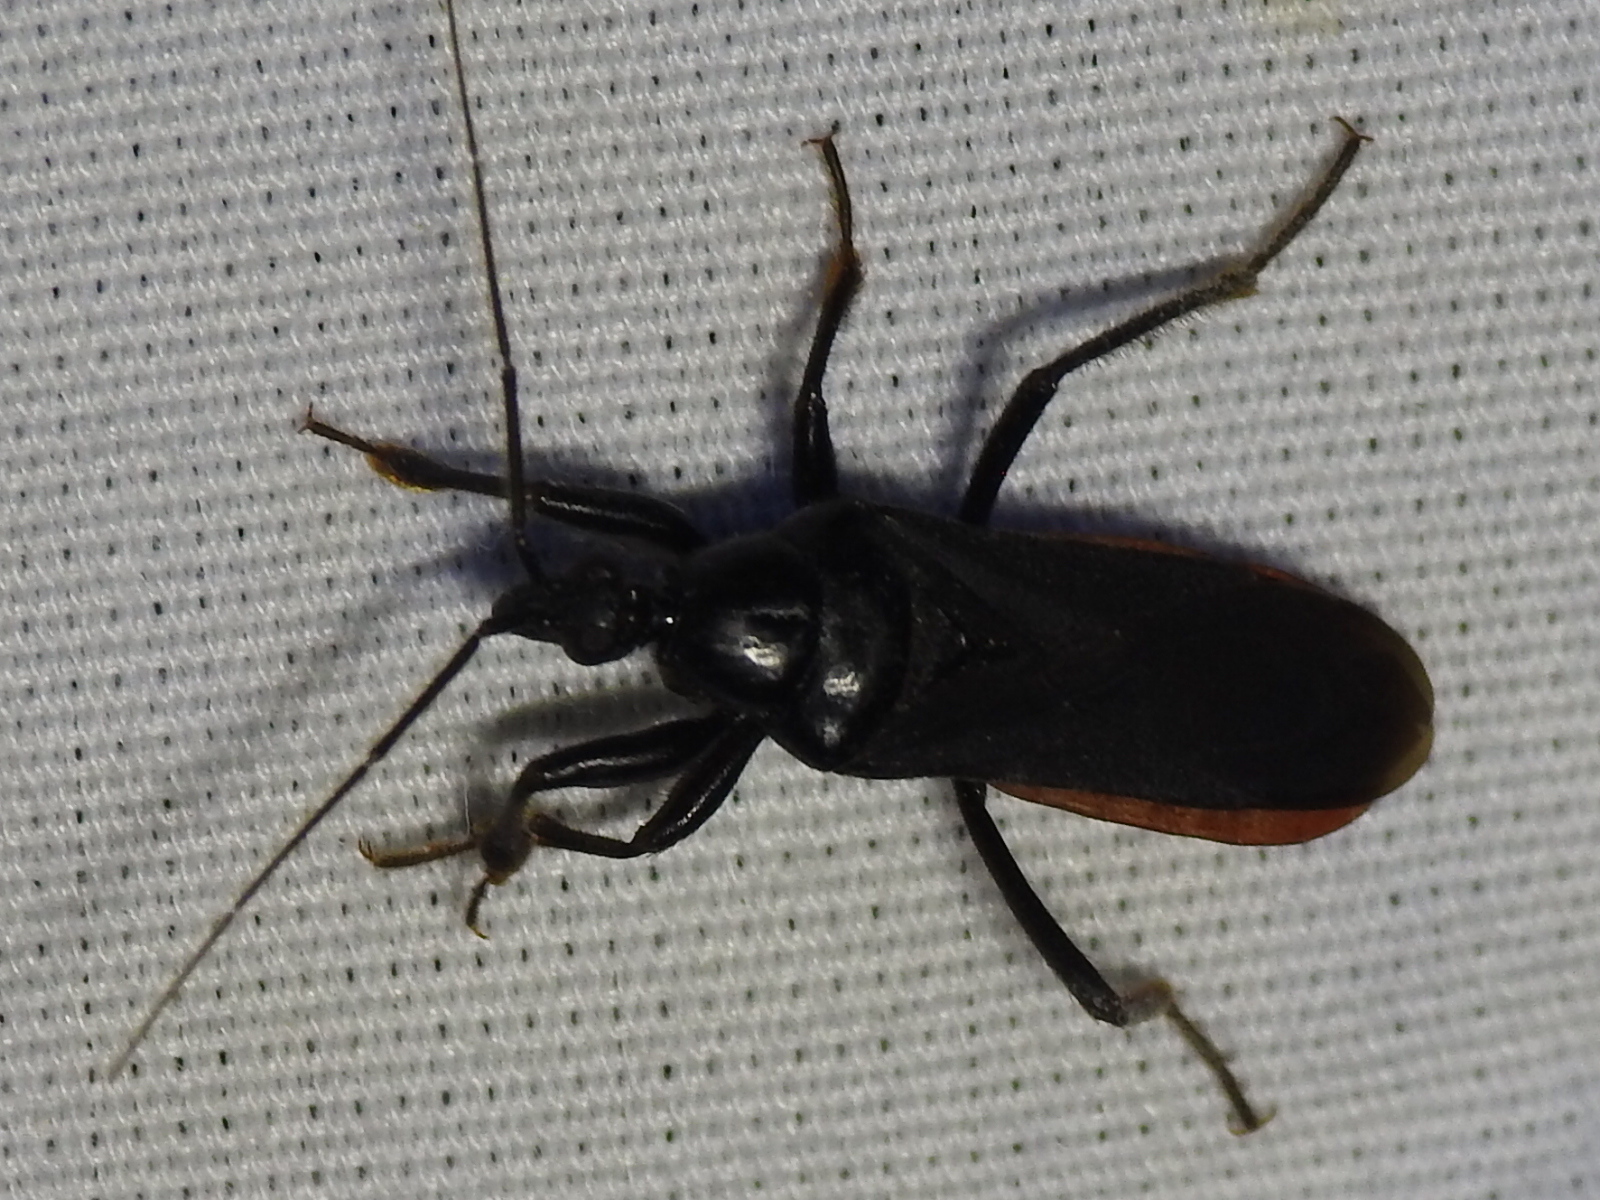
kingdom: Animalia
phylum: Arthropoda
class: Insecta
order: Hemiptera
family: Reduviidae
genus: Melanolestes
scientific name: Melanolestes picipes
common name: Assassin bug
